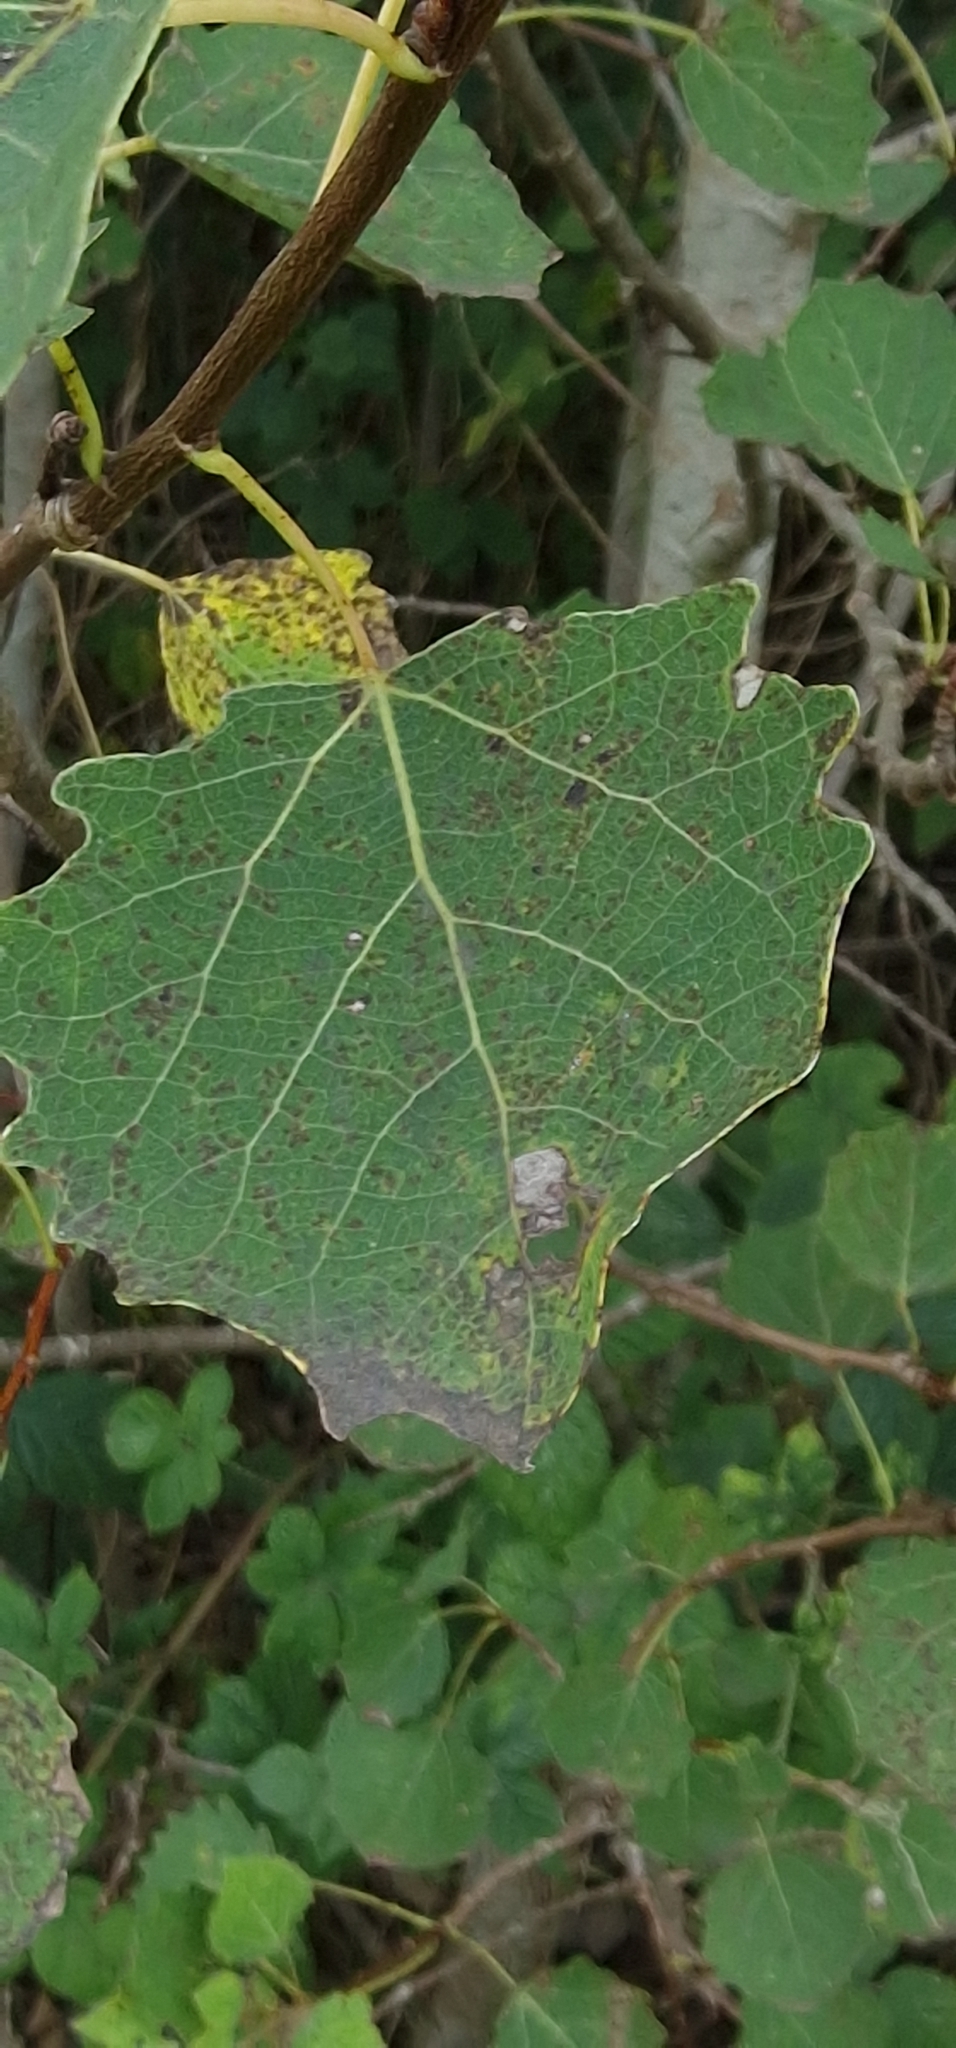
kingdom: Plantae
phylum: Tracheophyta
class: Magnoliopsida
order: Malpighiales
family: Salicaceae
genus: Populus
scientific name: Populus tremula
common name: European aspen
